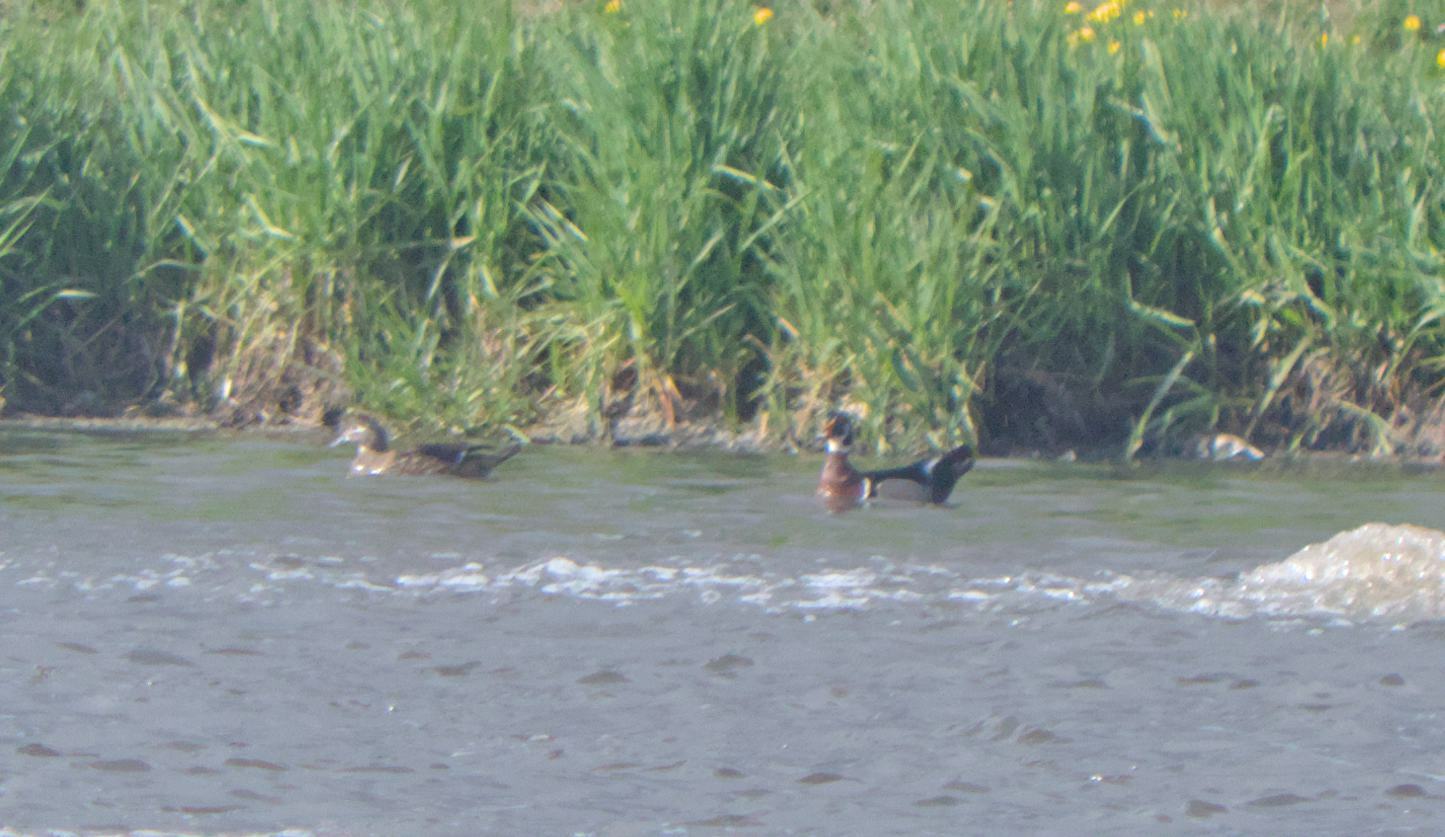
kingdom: Animalia
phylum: Chordata
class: Aves
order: Anseriformes
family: Anatidae
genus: Aix
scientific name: Aix sponsa
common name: Wood duck
